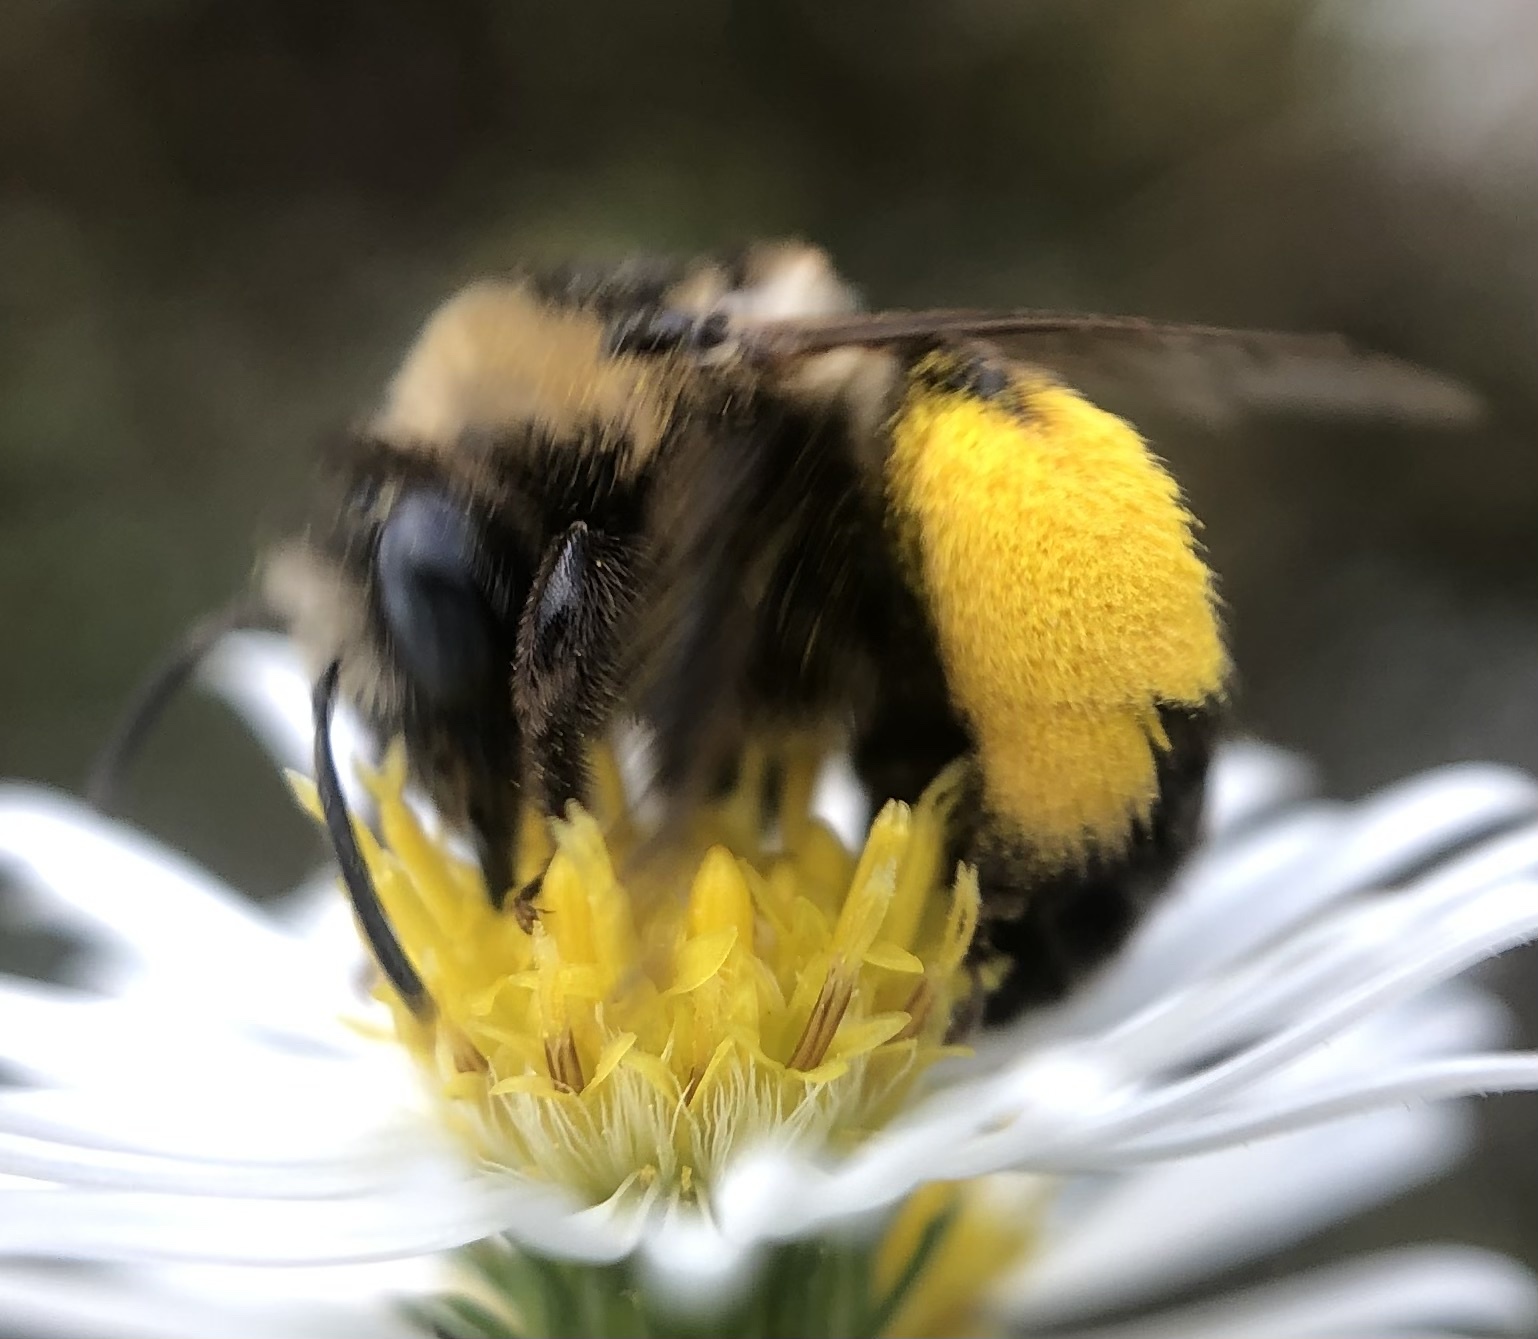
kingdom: Animalia
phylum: Arthropoda
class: Insecta
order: Hymenoptera
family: Apidae
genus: Melissodes
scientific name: Melissodes druriellus
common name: Drury's long-horned bee
